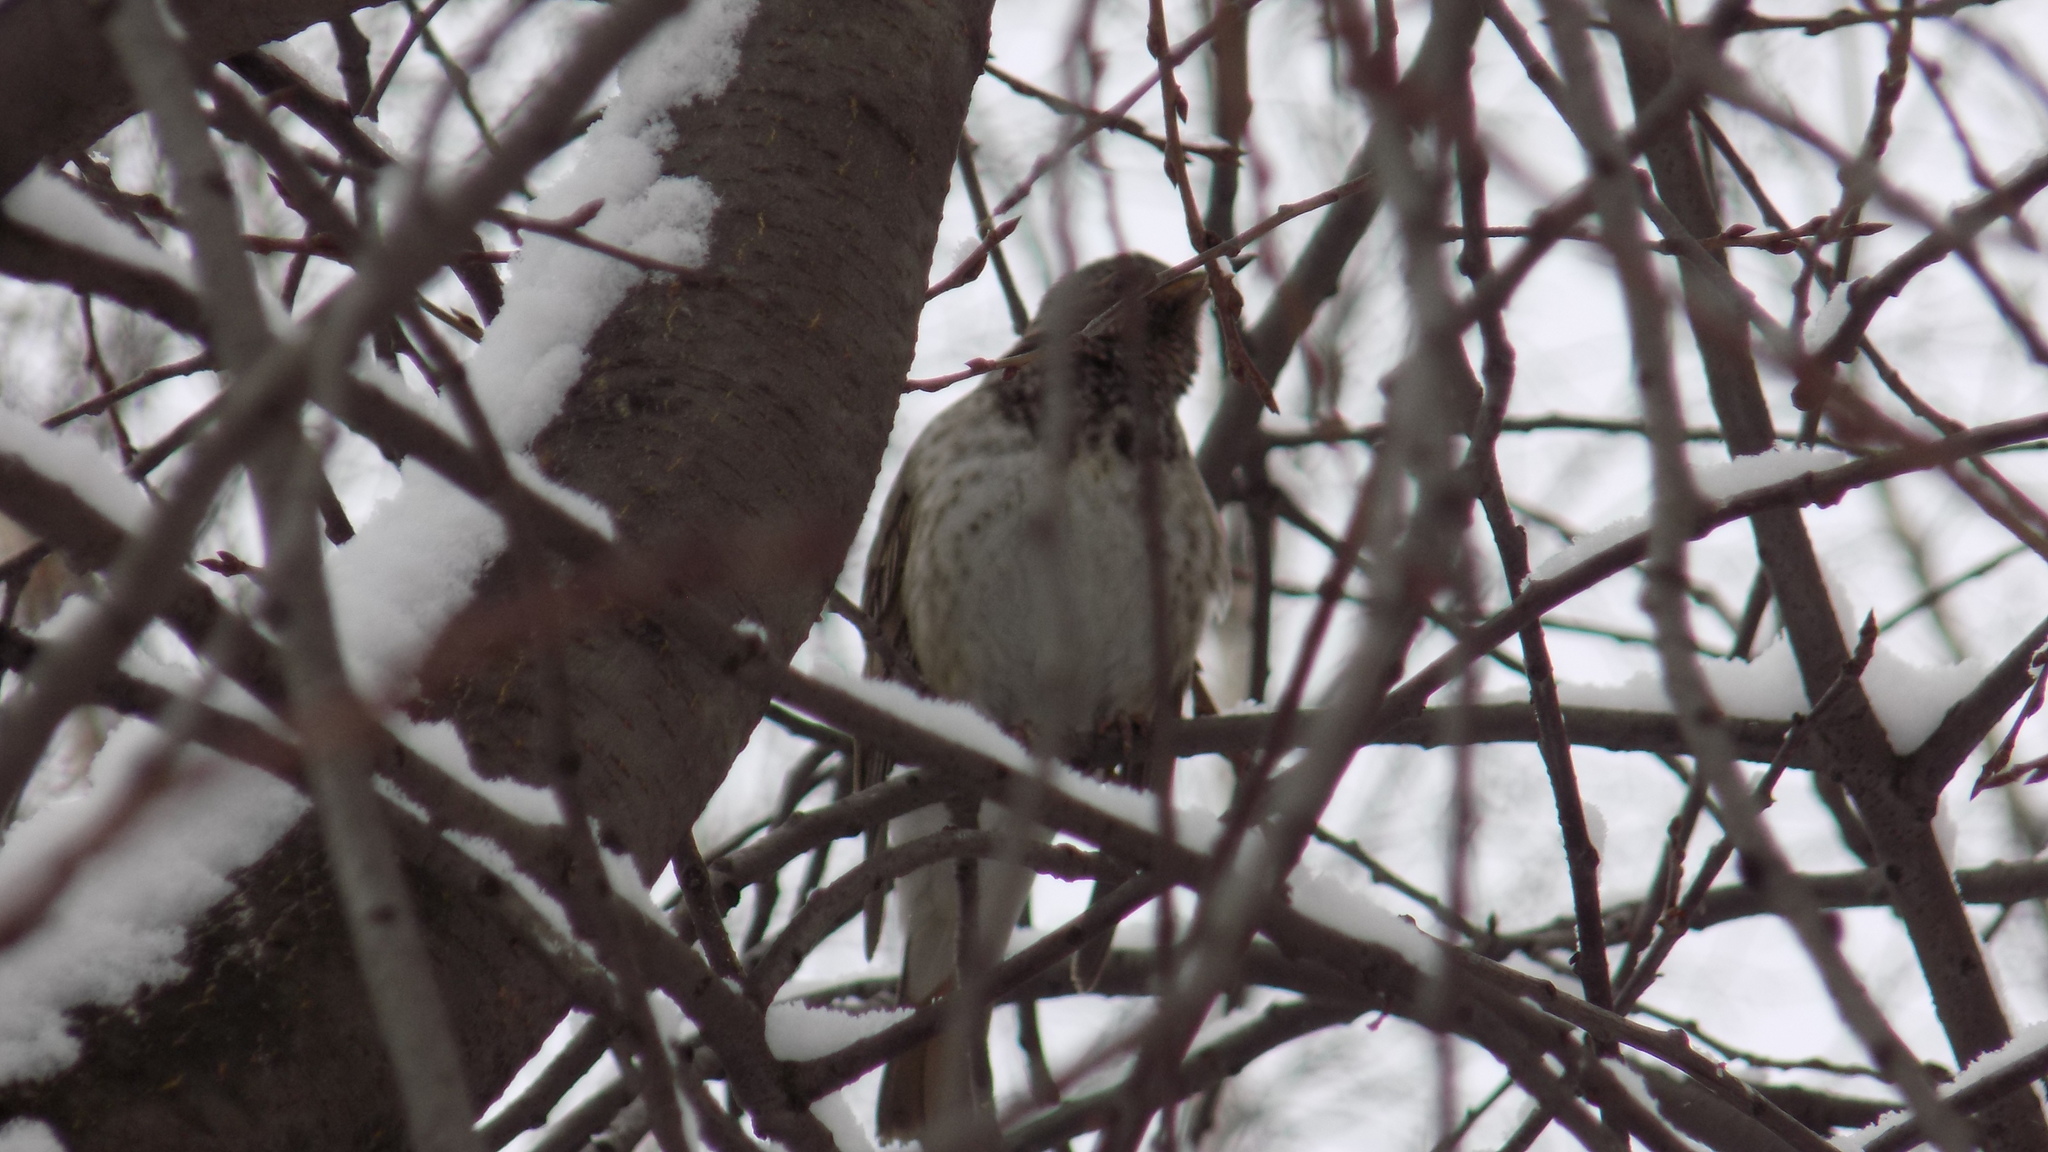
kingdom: Animalia
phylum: Chordata
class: Aves
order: Passeriformes
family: Turdidae
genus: Turdus
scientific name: Turdus atrogularis
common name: Black-throated thrush
